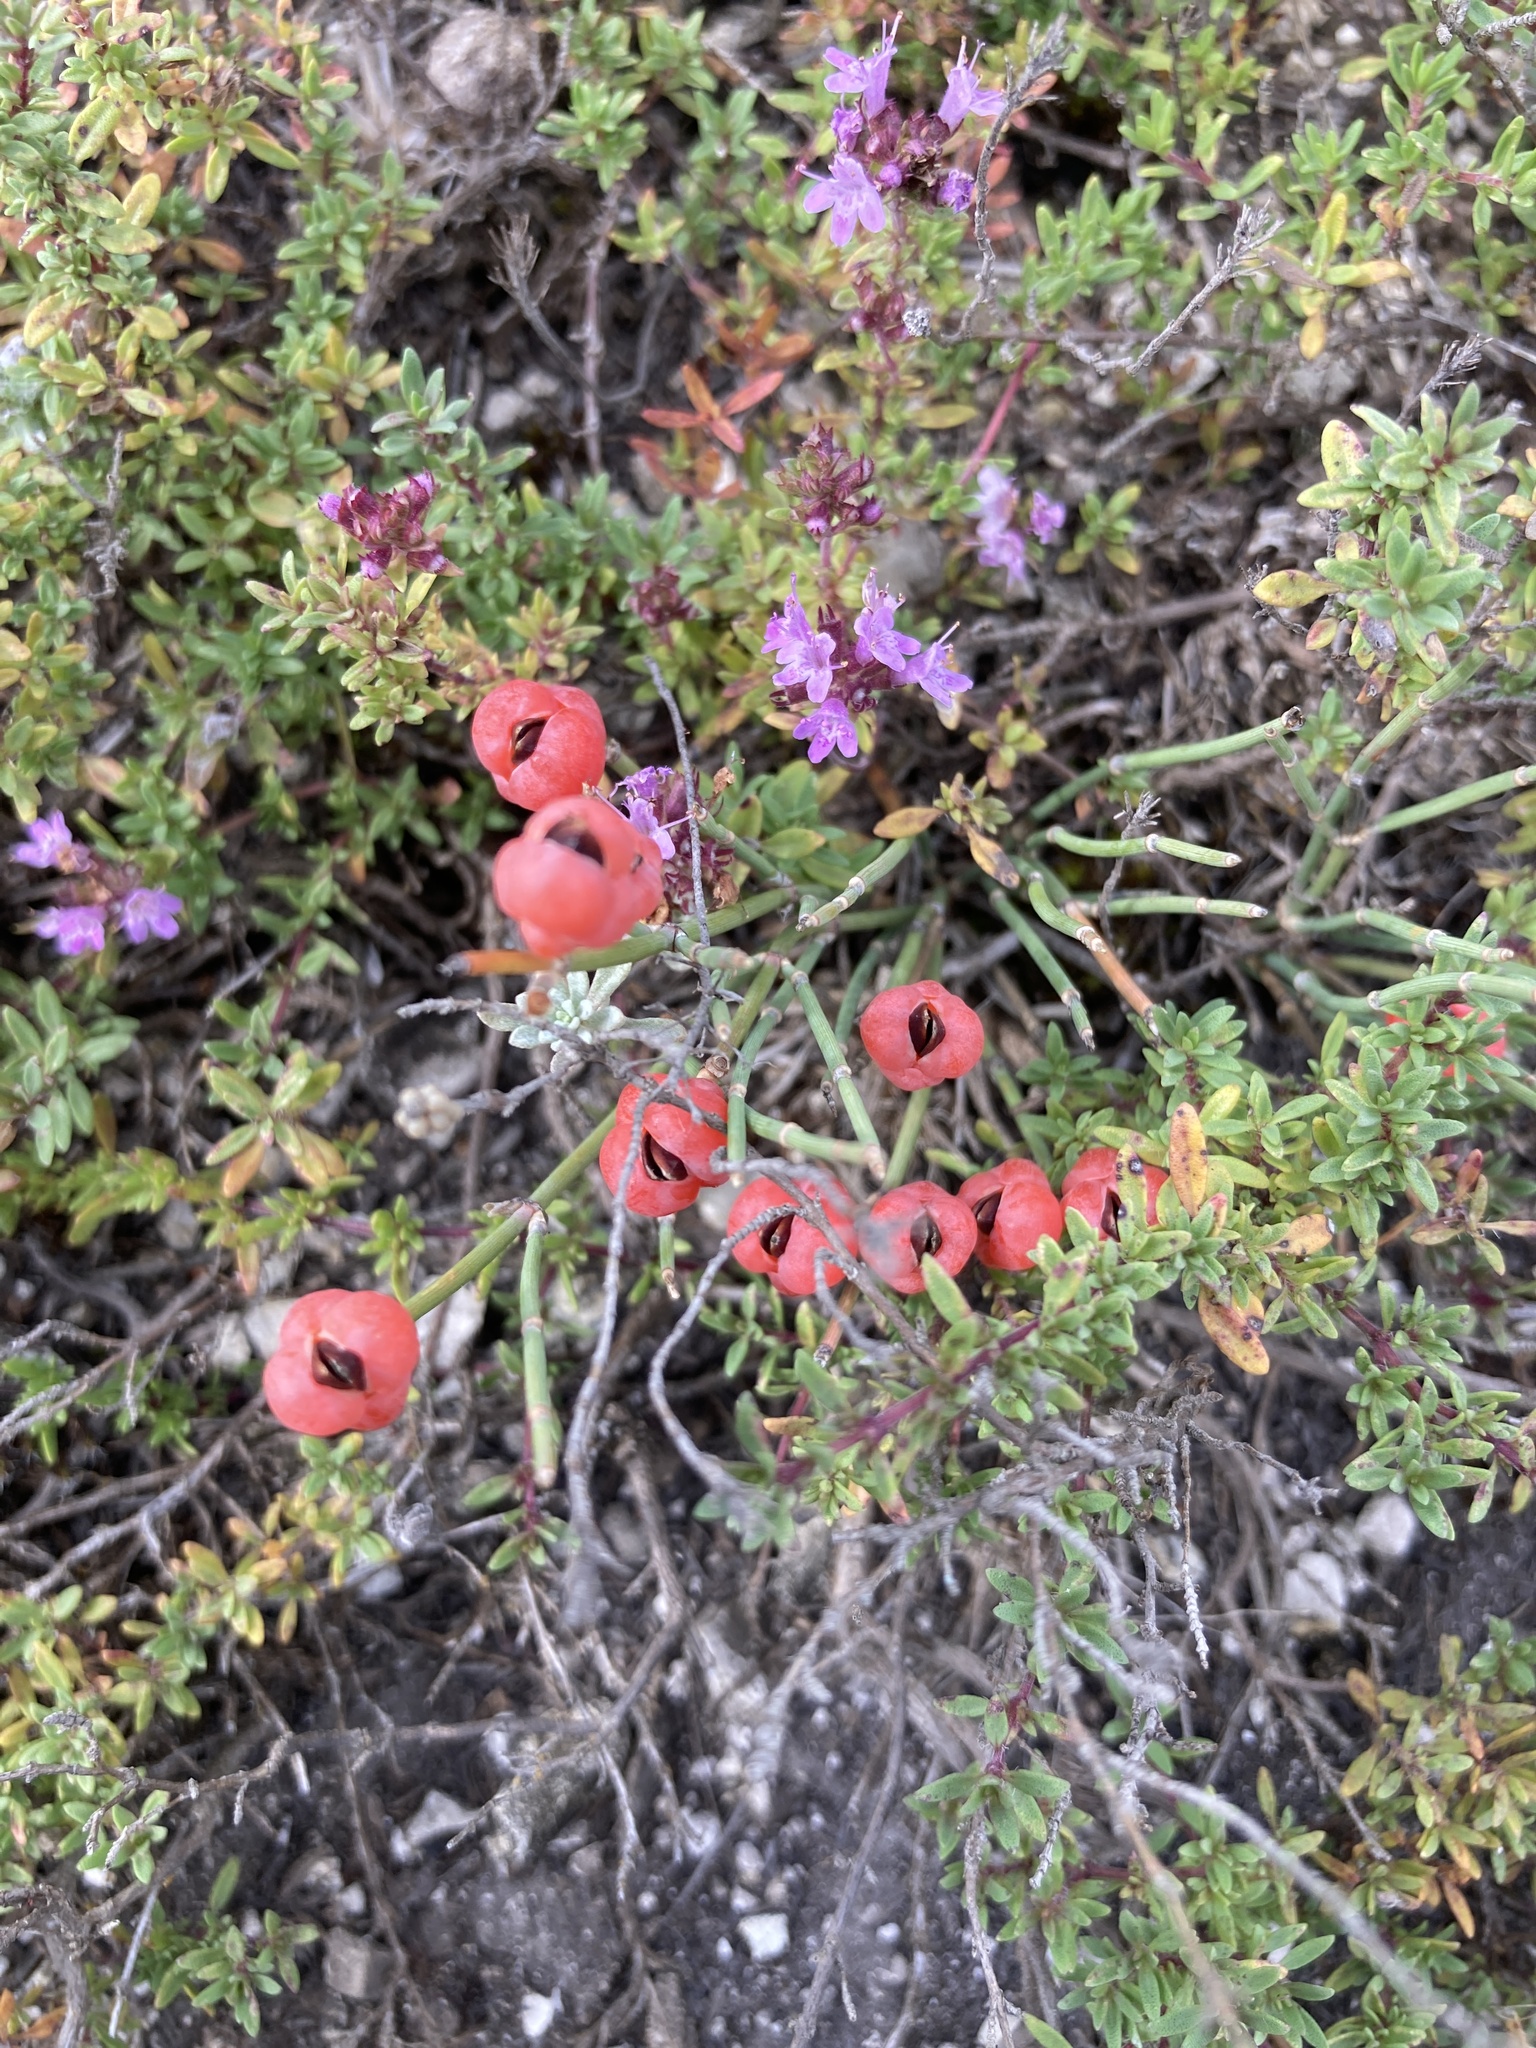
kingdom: Plantae
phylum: Tracheophyta
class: Gnetopsida
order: Ephedrales
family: Ephedraceae
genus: Ephedra
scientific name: Ephedra distachya
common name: Sea grape
